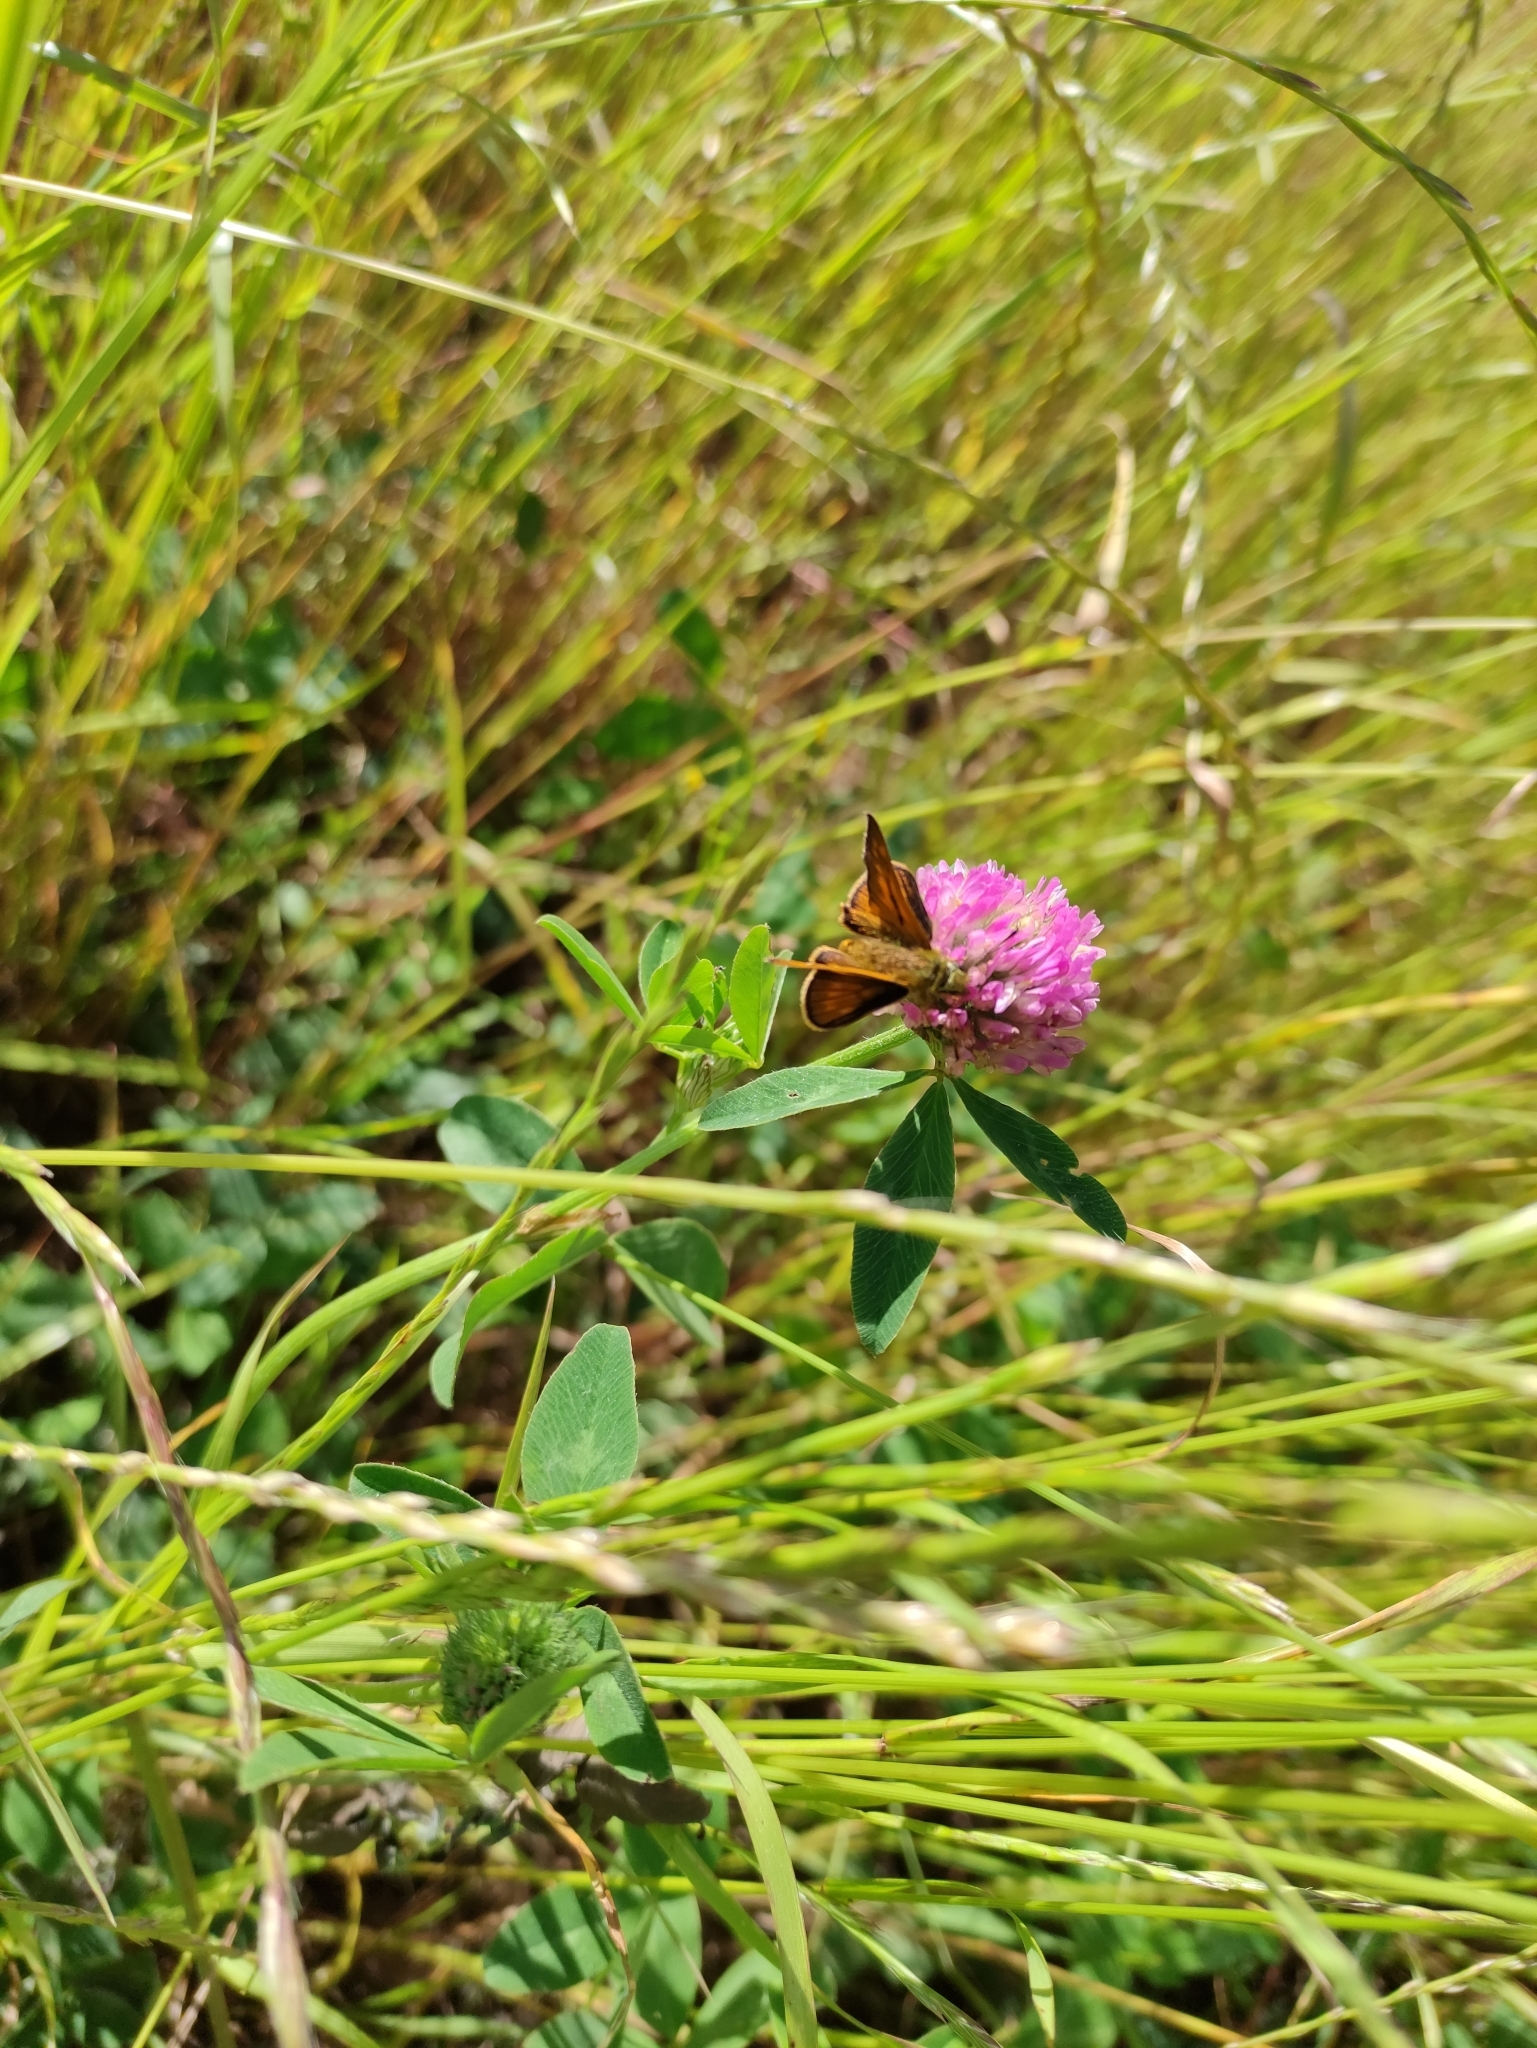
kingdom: Animalia
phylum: Arthropoda
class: Insecta
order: Lepidoptera
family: Hesperiidae
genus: Ochlodes
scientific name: Ochlodes venata
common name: Large skipper
